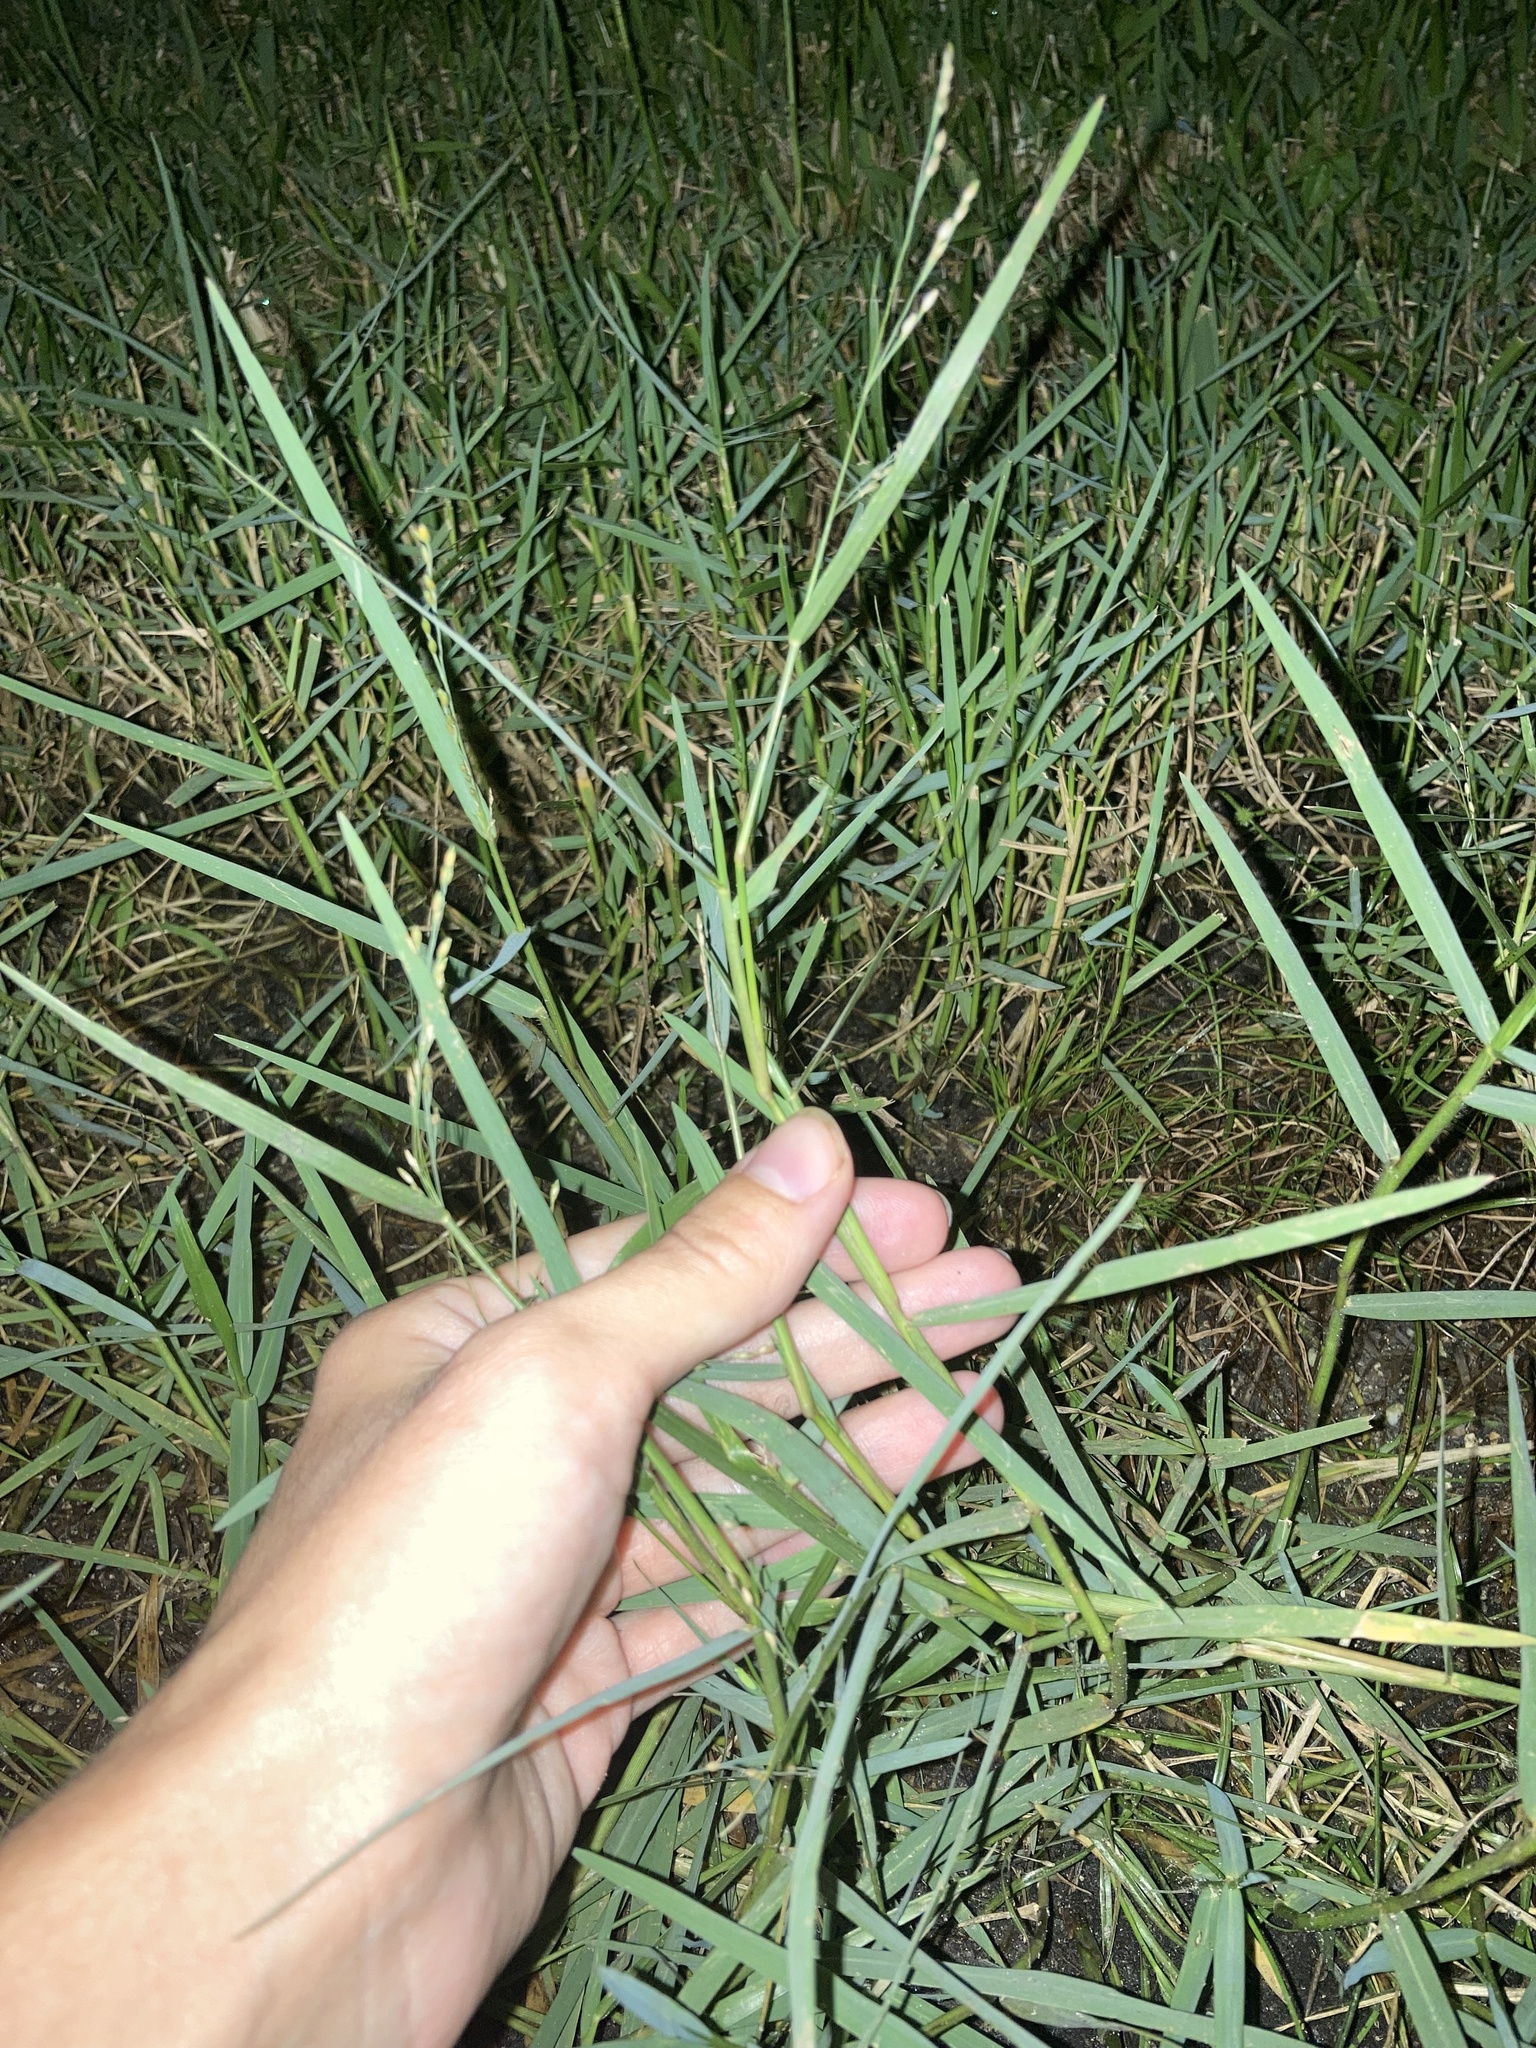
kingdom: Plantae
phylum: Tracheophyta
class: Liliopsida
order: Poales
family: Poaceae
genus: Panicum
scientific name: Panicum repens
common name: Torpedo grass
